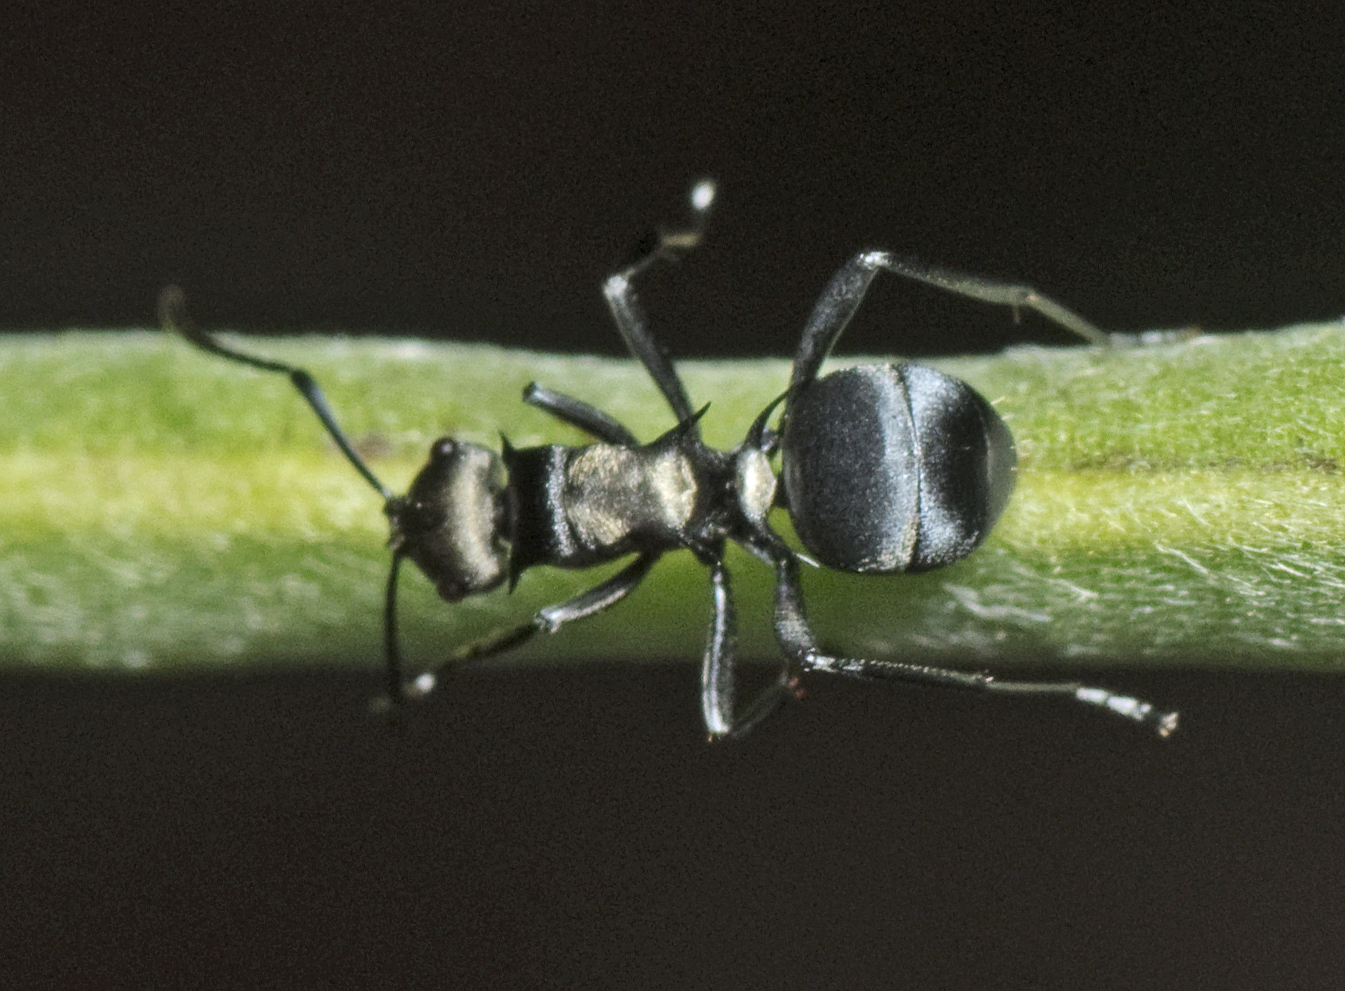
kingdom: Animalia
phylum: Arthropoda
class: Insecta
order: Hymenoptera
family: Formicidae
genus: Polyrhachis
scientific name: Polyrhachis daemeli
